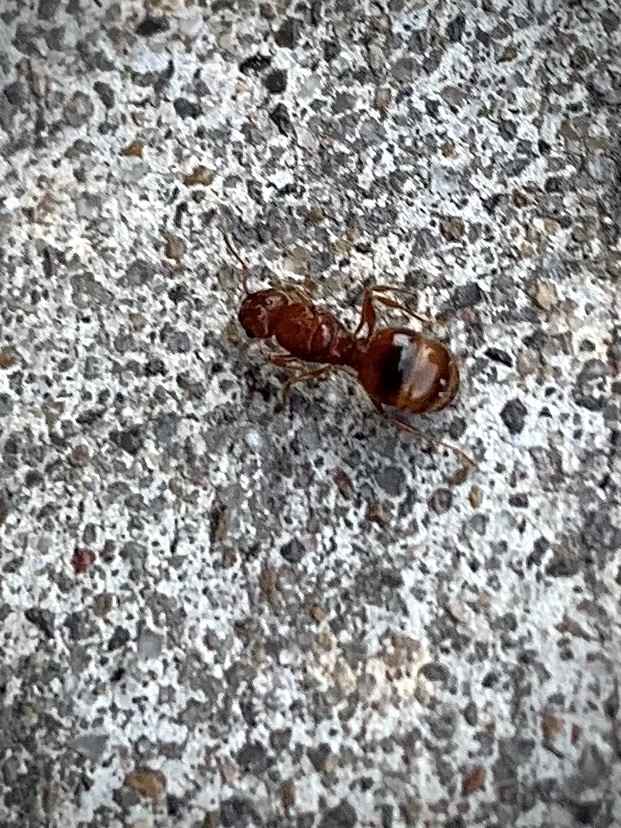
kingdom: Animalia
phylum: Arthropoda
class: Insecta
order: Hymenoptera
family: Formicidae
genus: Pheidole
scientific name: Pheidole dentata
